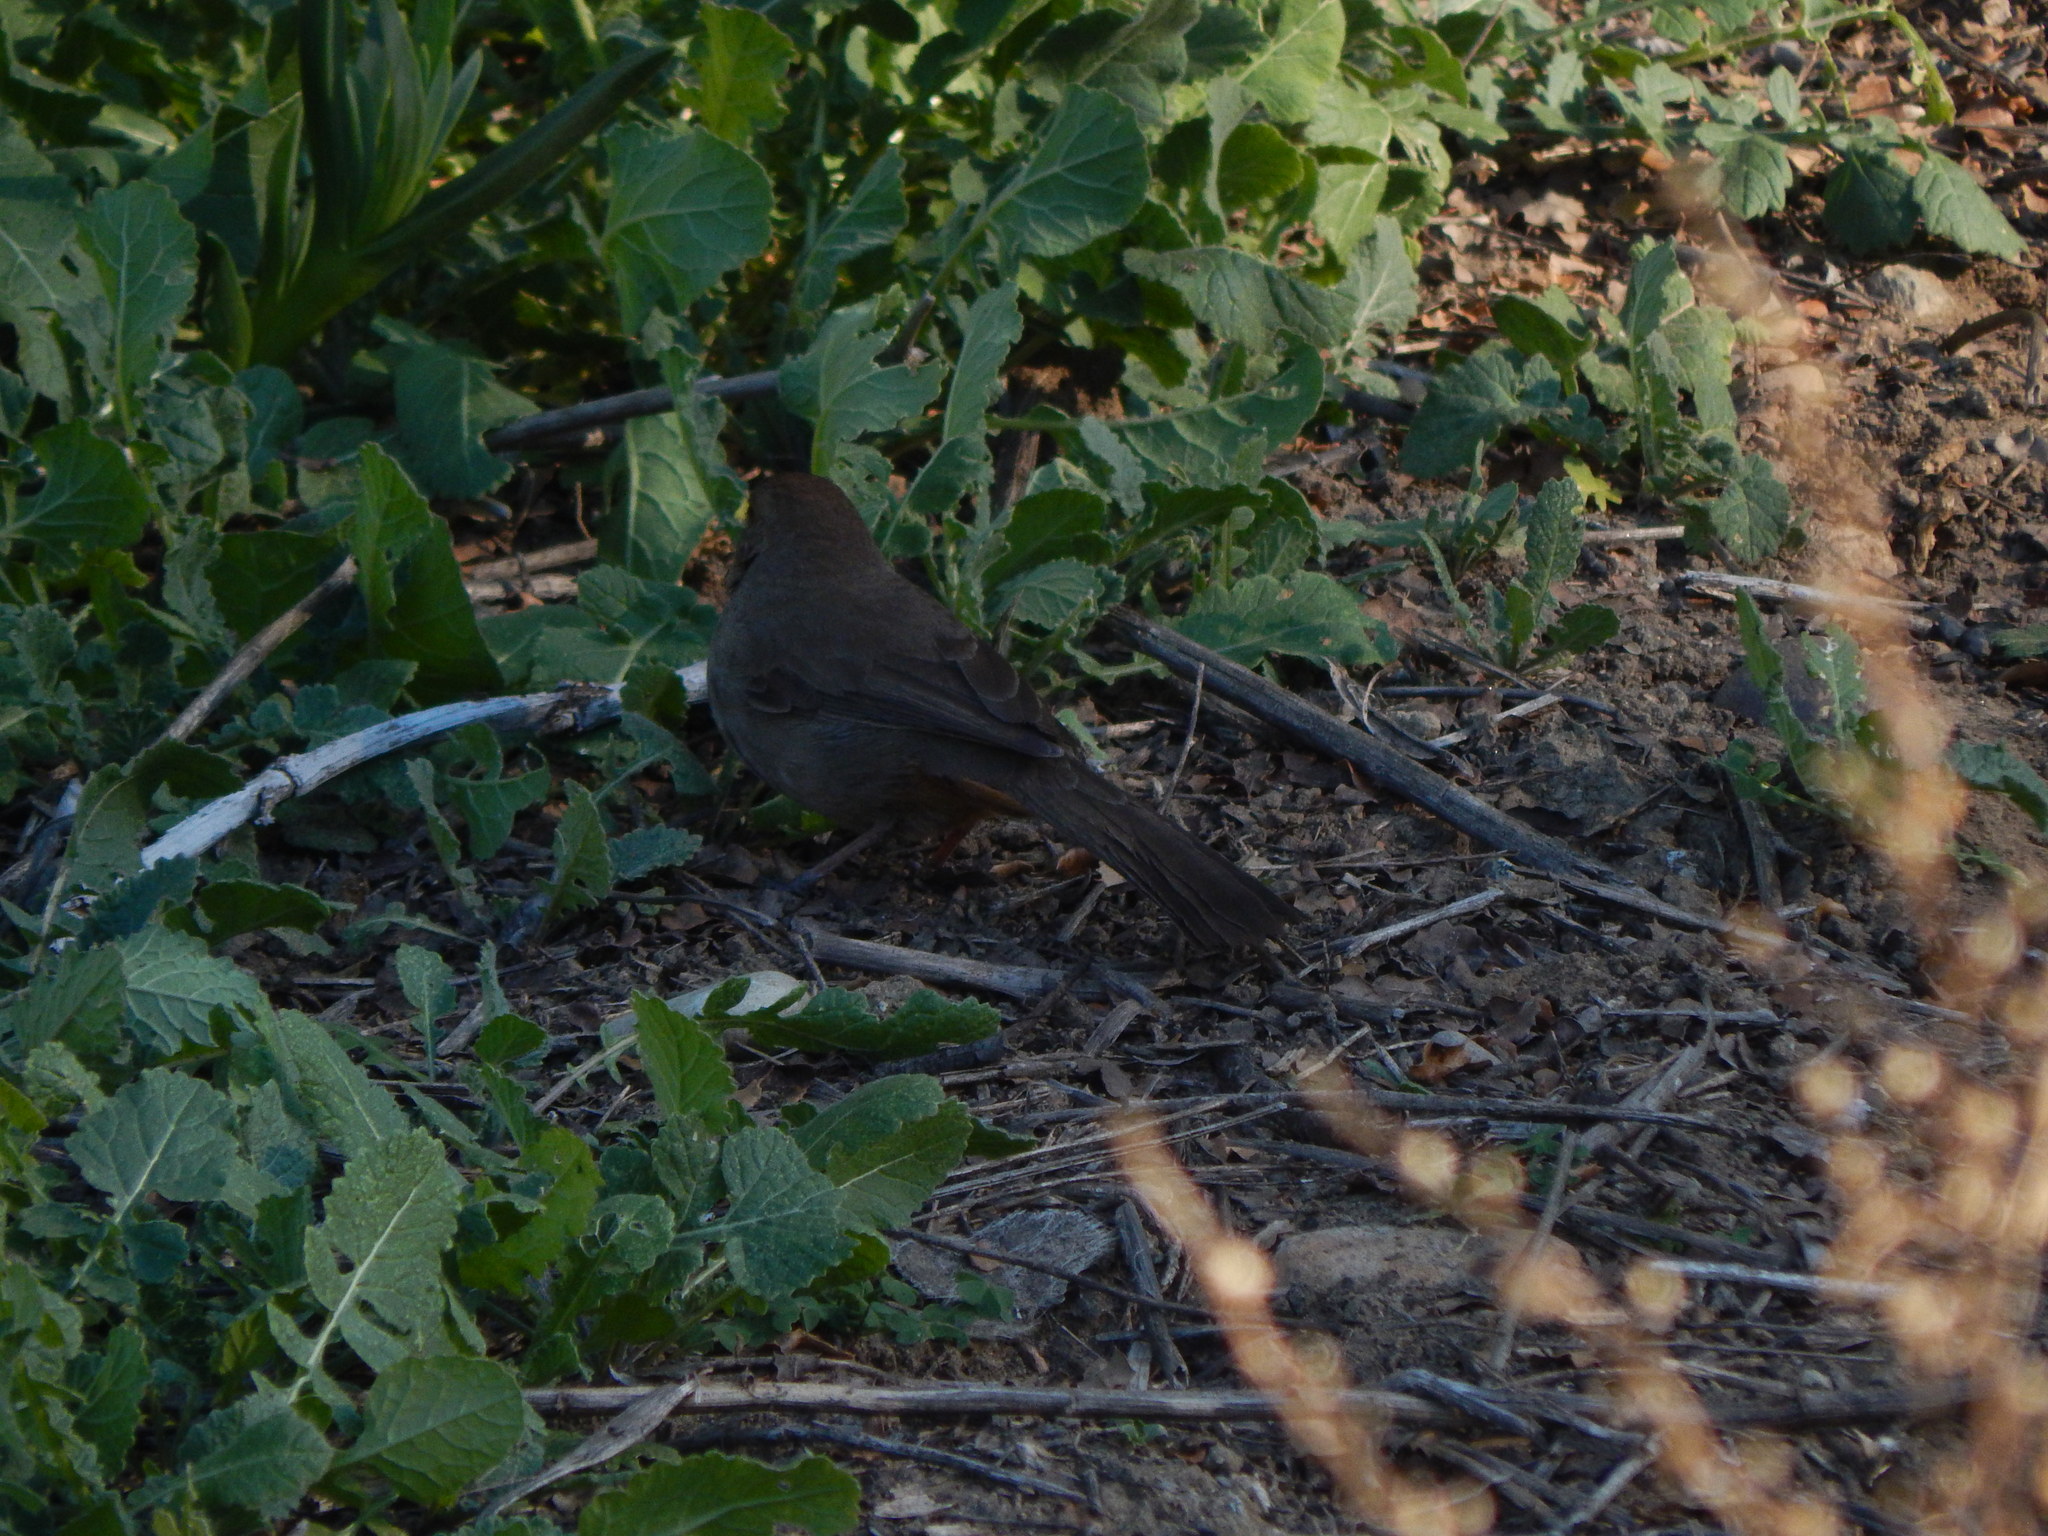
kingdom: Animalia
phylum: Chordata
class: Aves
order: Passeriformes
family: Passerellidae
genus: Melozone
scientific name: Melozone crissalis
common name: California towhee
